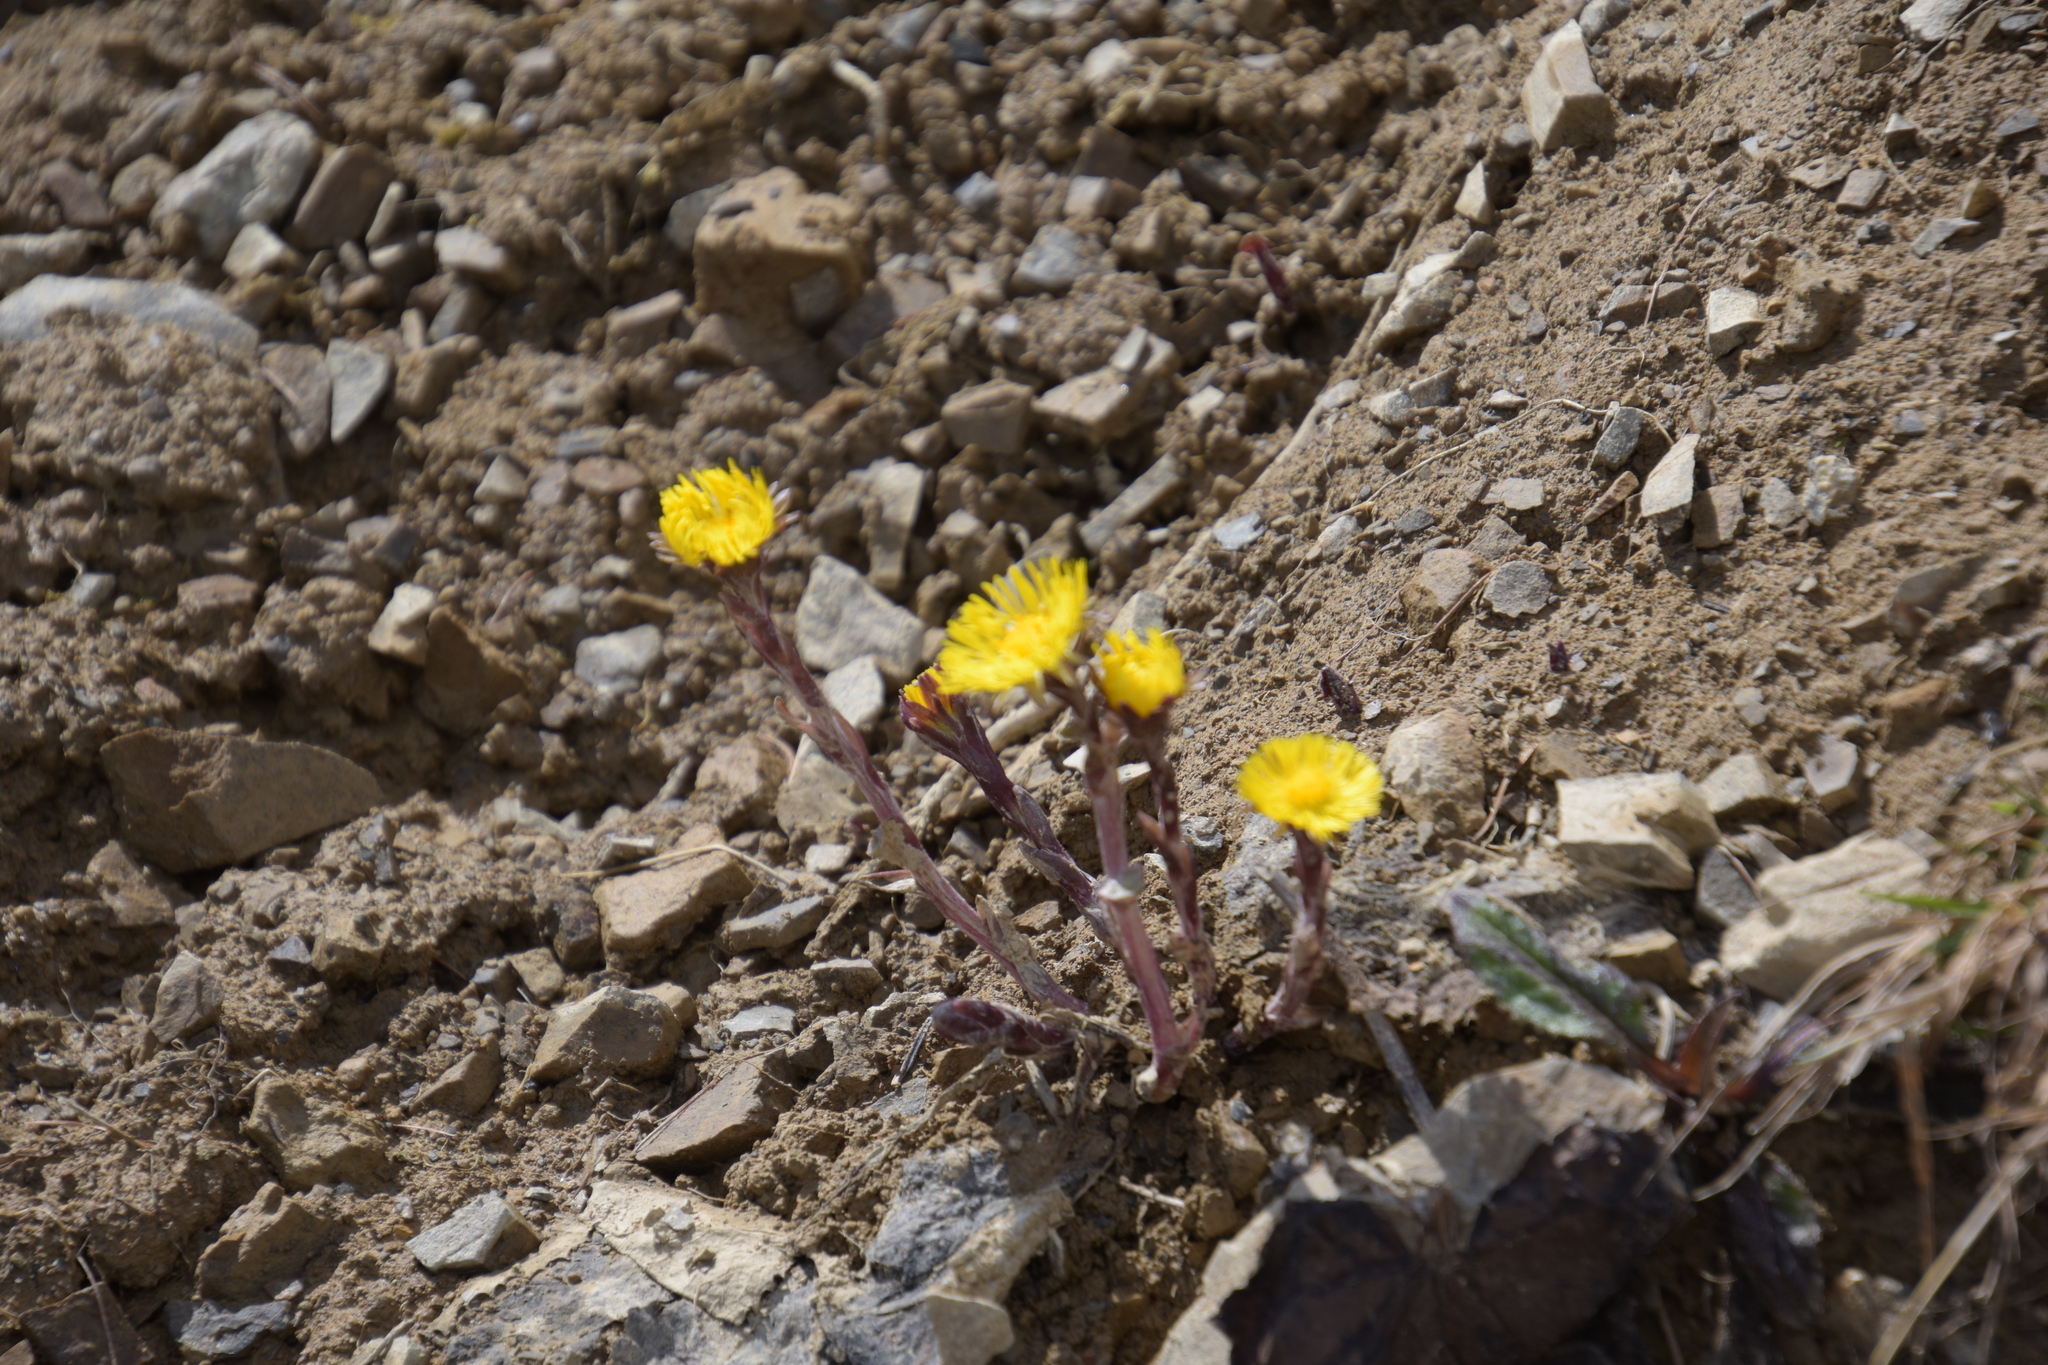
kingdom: Plantae
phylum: Tracheophyta
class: Magnoliopsida
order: Asterales
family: Asteraceae
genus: Tussilago
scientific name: Tussilago farfara
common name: Coltsfoot
